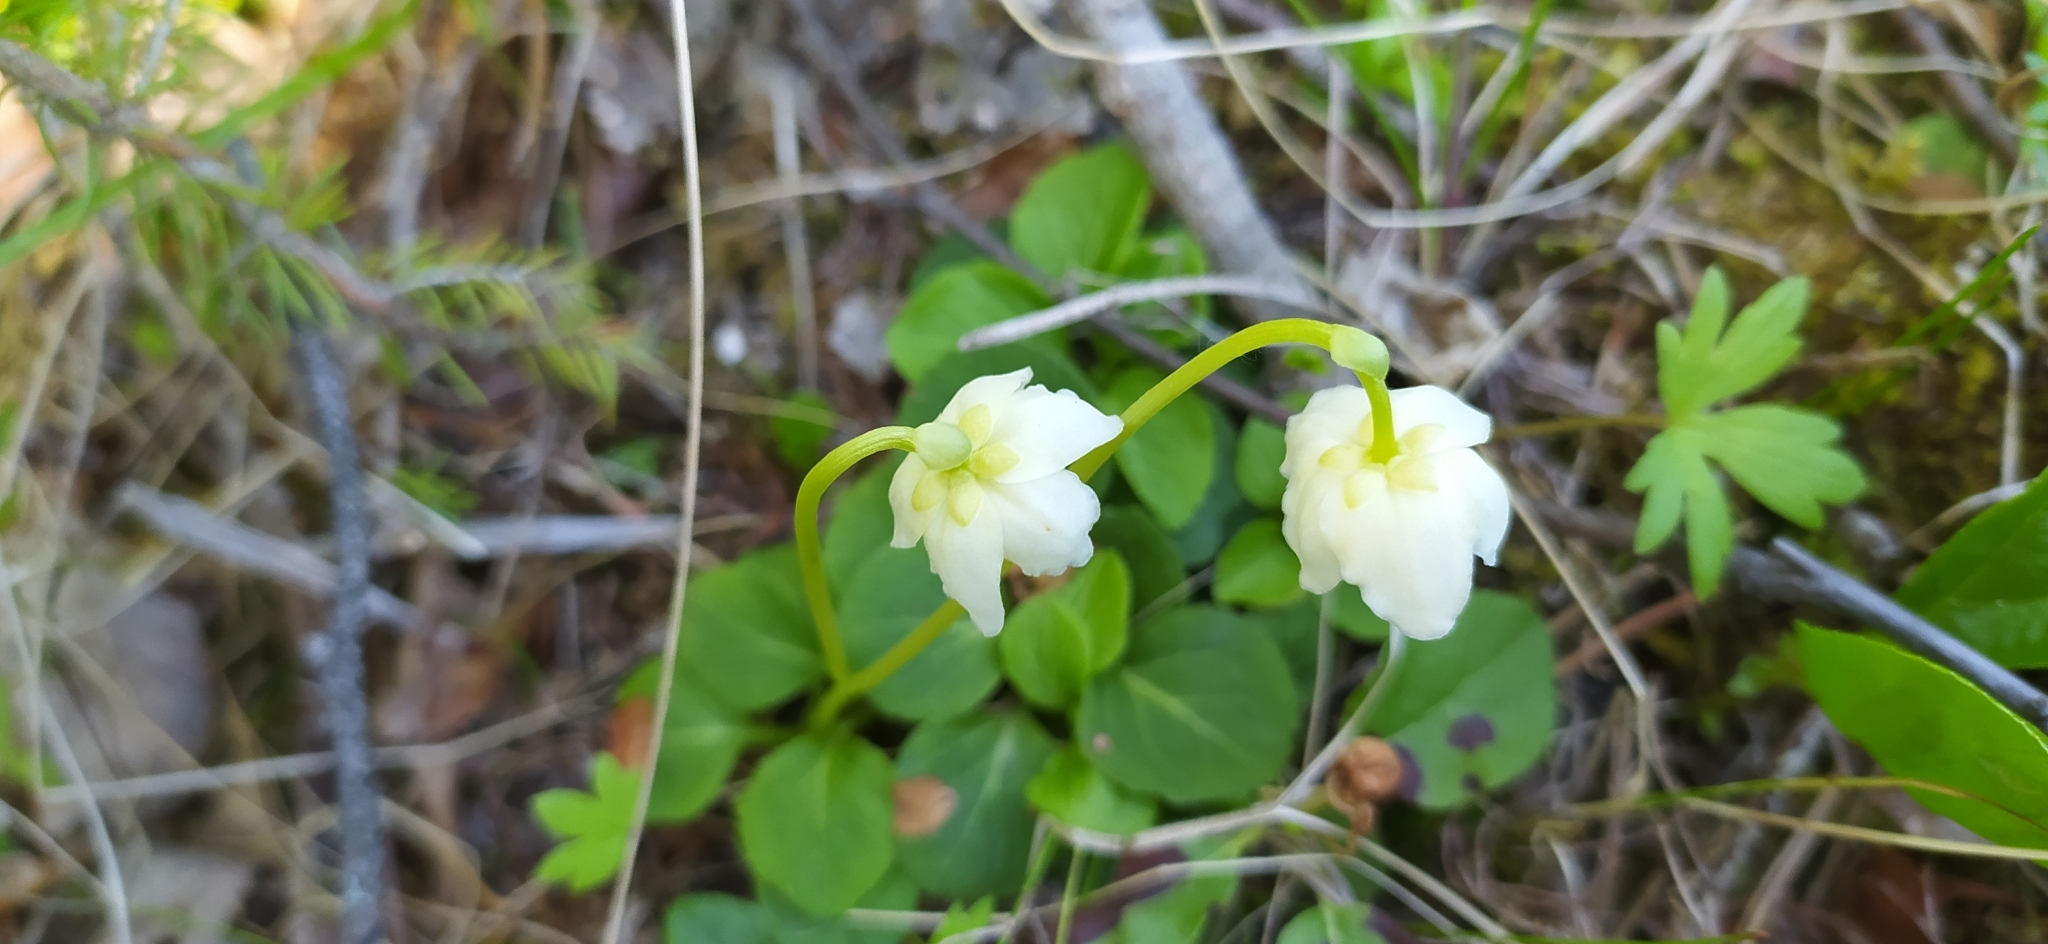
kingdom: Plantae
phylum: Tracheophyta
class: Magnoliopsida
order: Ericales
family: Ericaceae
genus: Moneses
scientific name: Moneses uniflora
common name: One-flowered wintergreen
